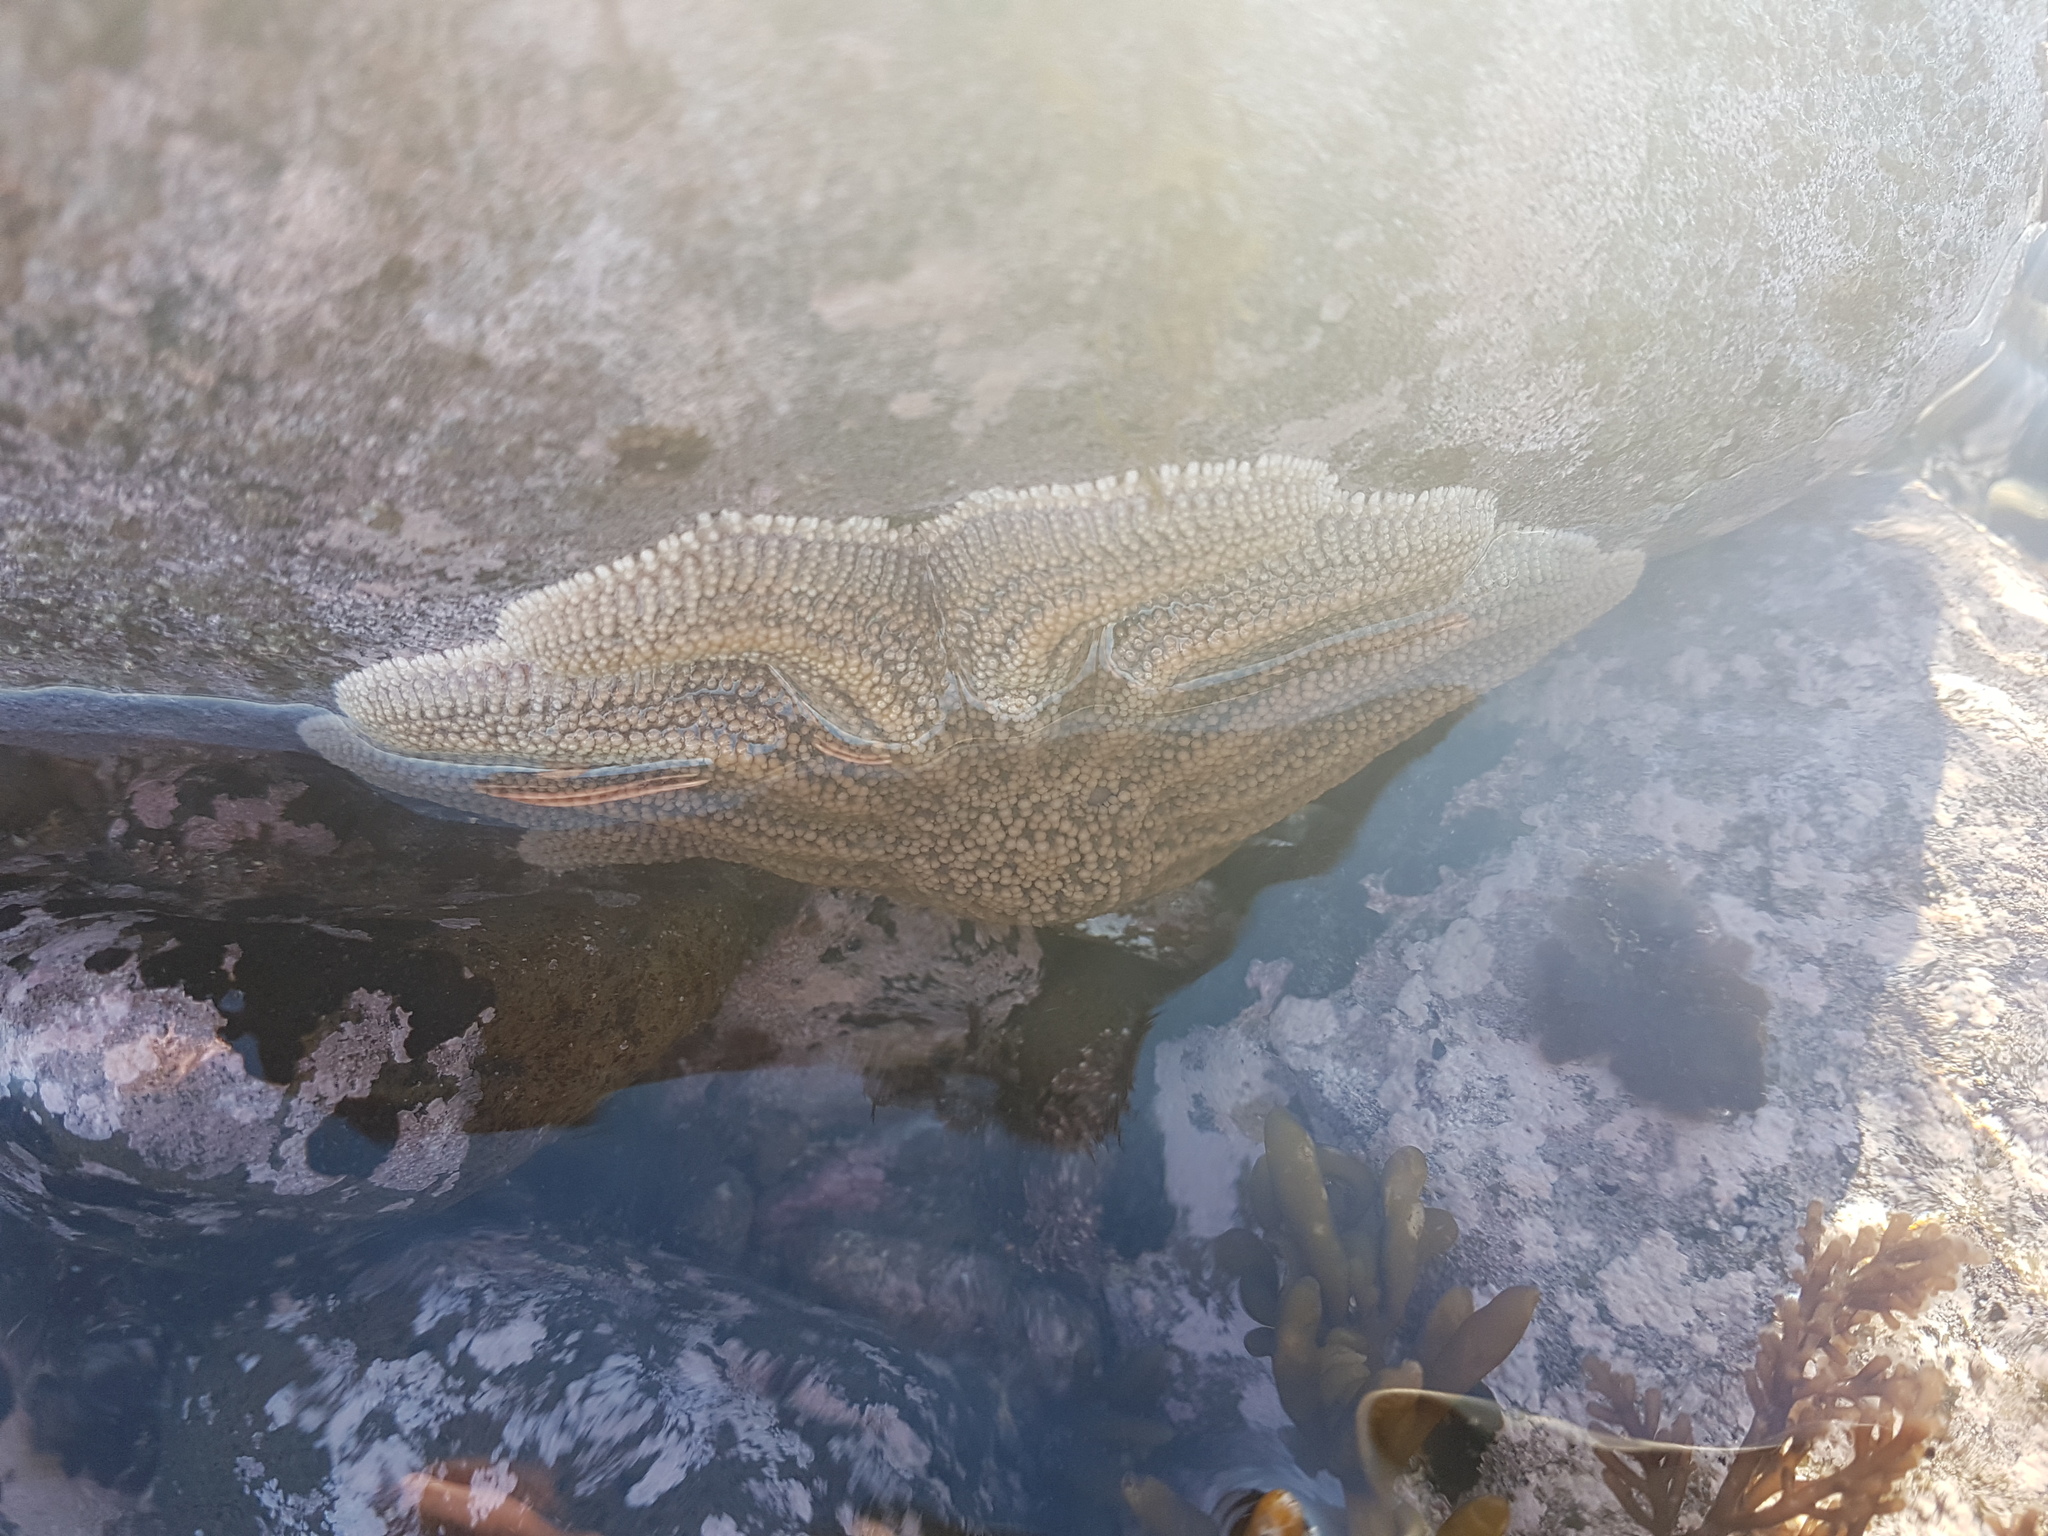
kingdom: Animalia
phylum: Echinodermata
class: Asteroidea
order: Forcipulatida
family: Stichasteridae
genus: Stichaster
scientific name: Stichaster australis
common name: Reef starfish
